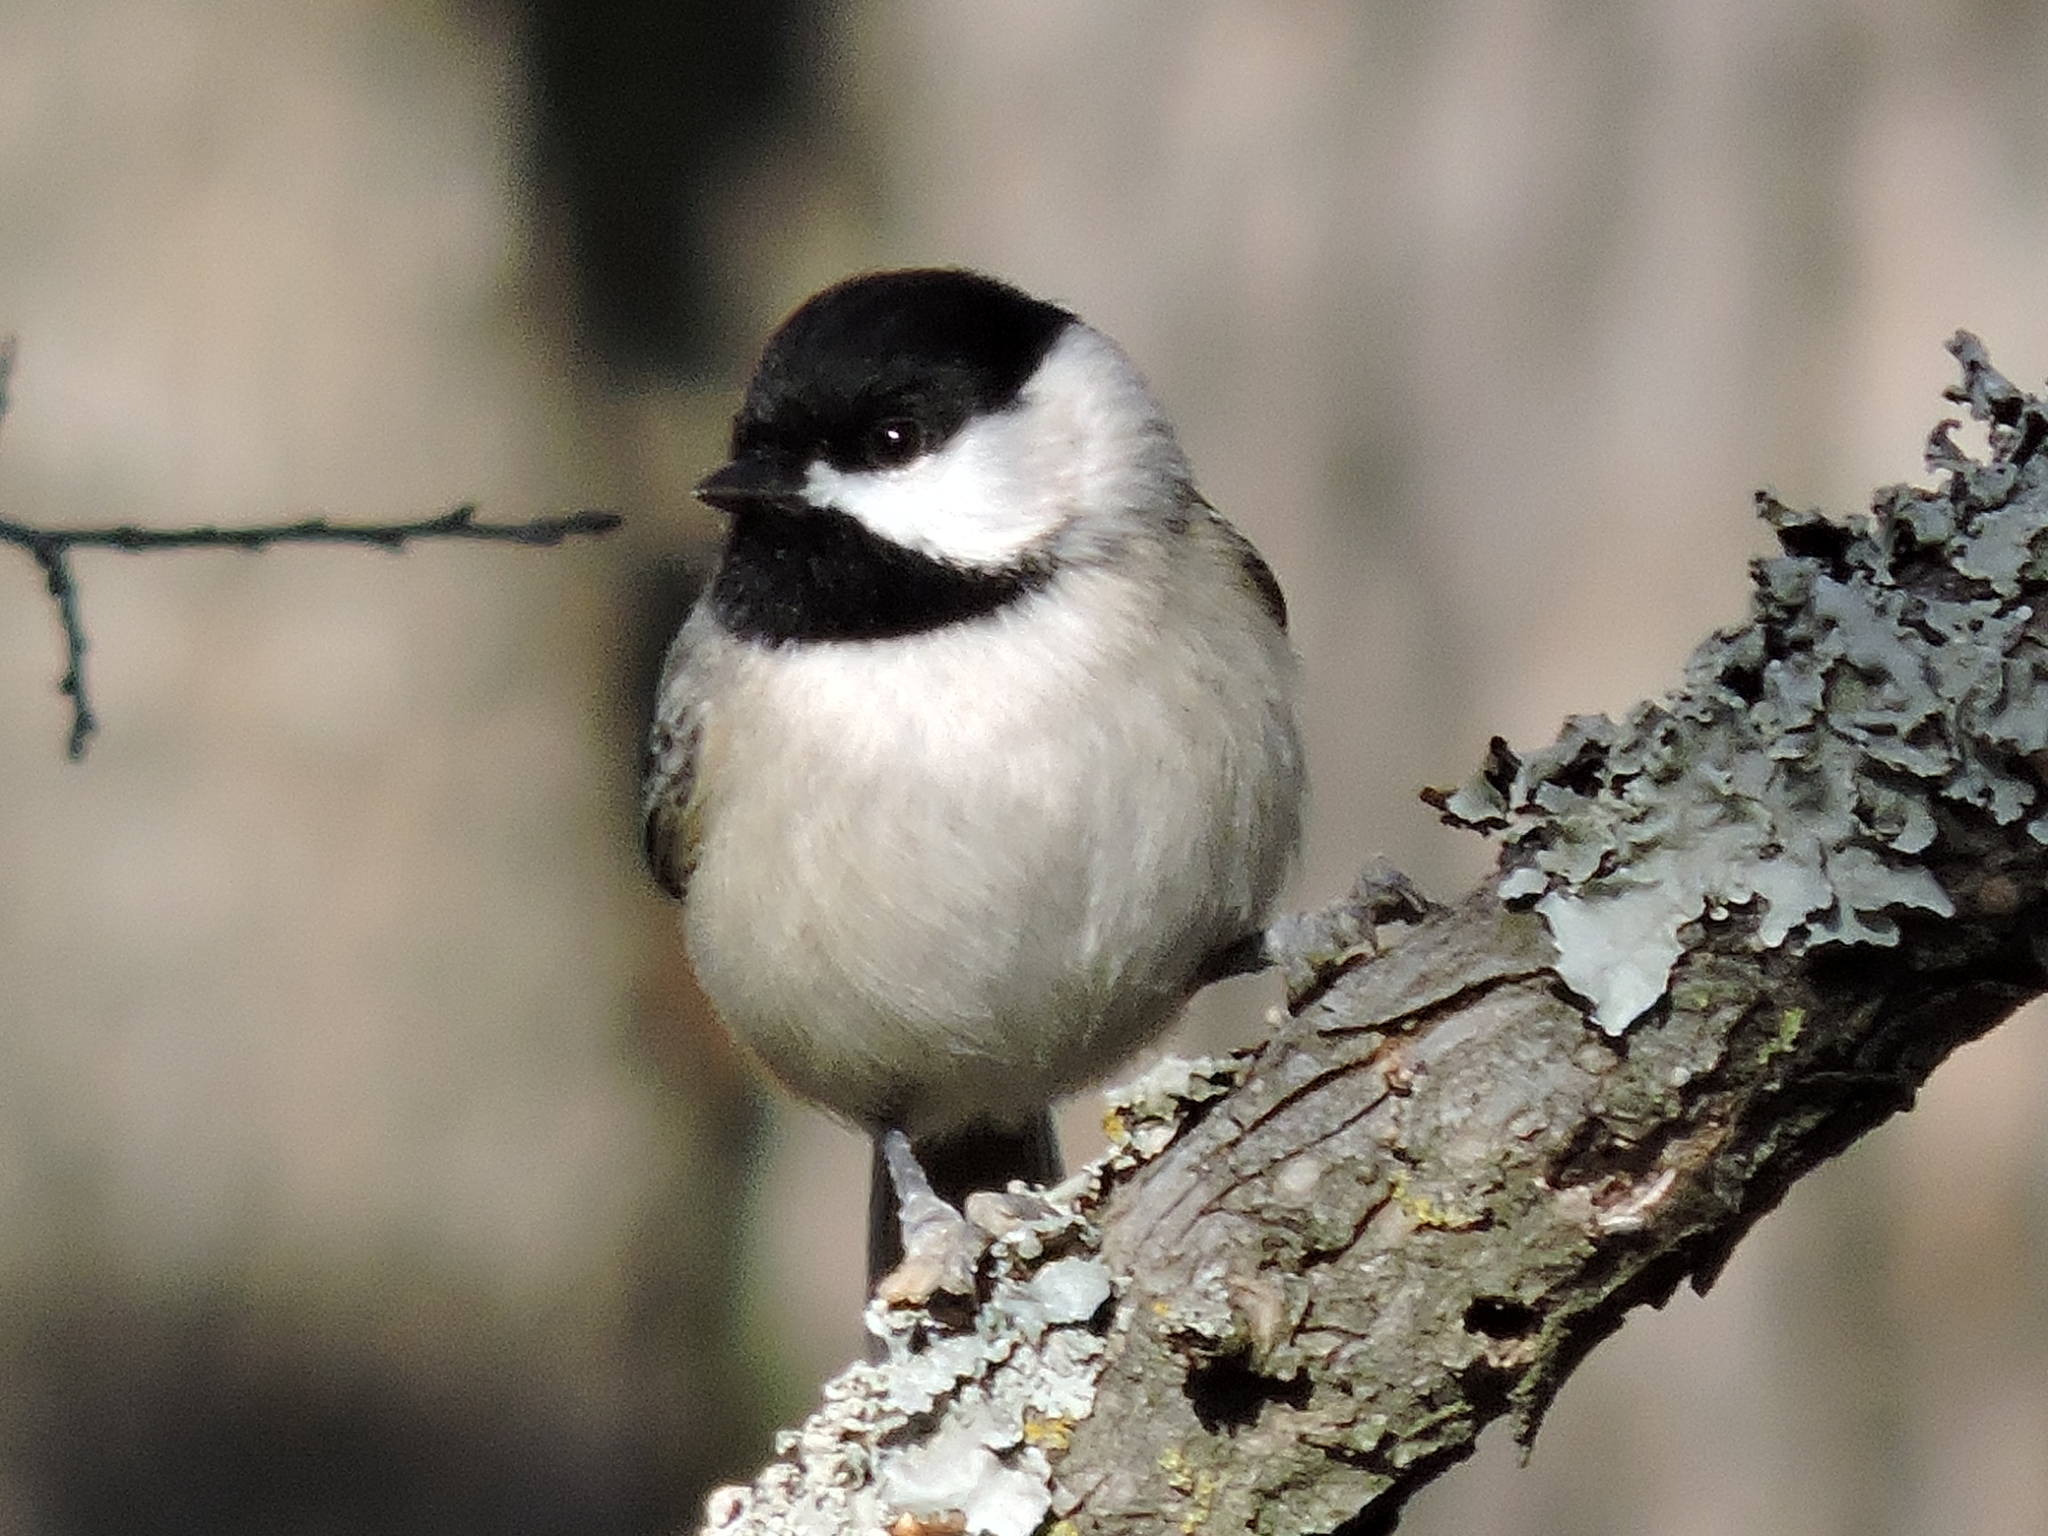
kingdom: Animalia
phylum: Chordata
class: Aves
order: Passeriformes
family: Paridae
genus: Poecile
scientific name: Poecile carolinensis
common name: Carolina chickadee
